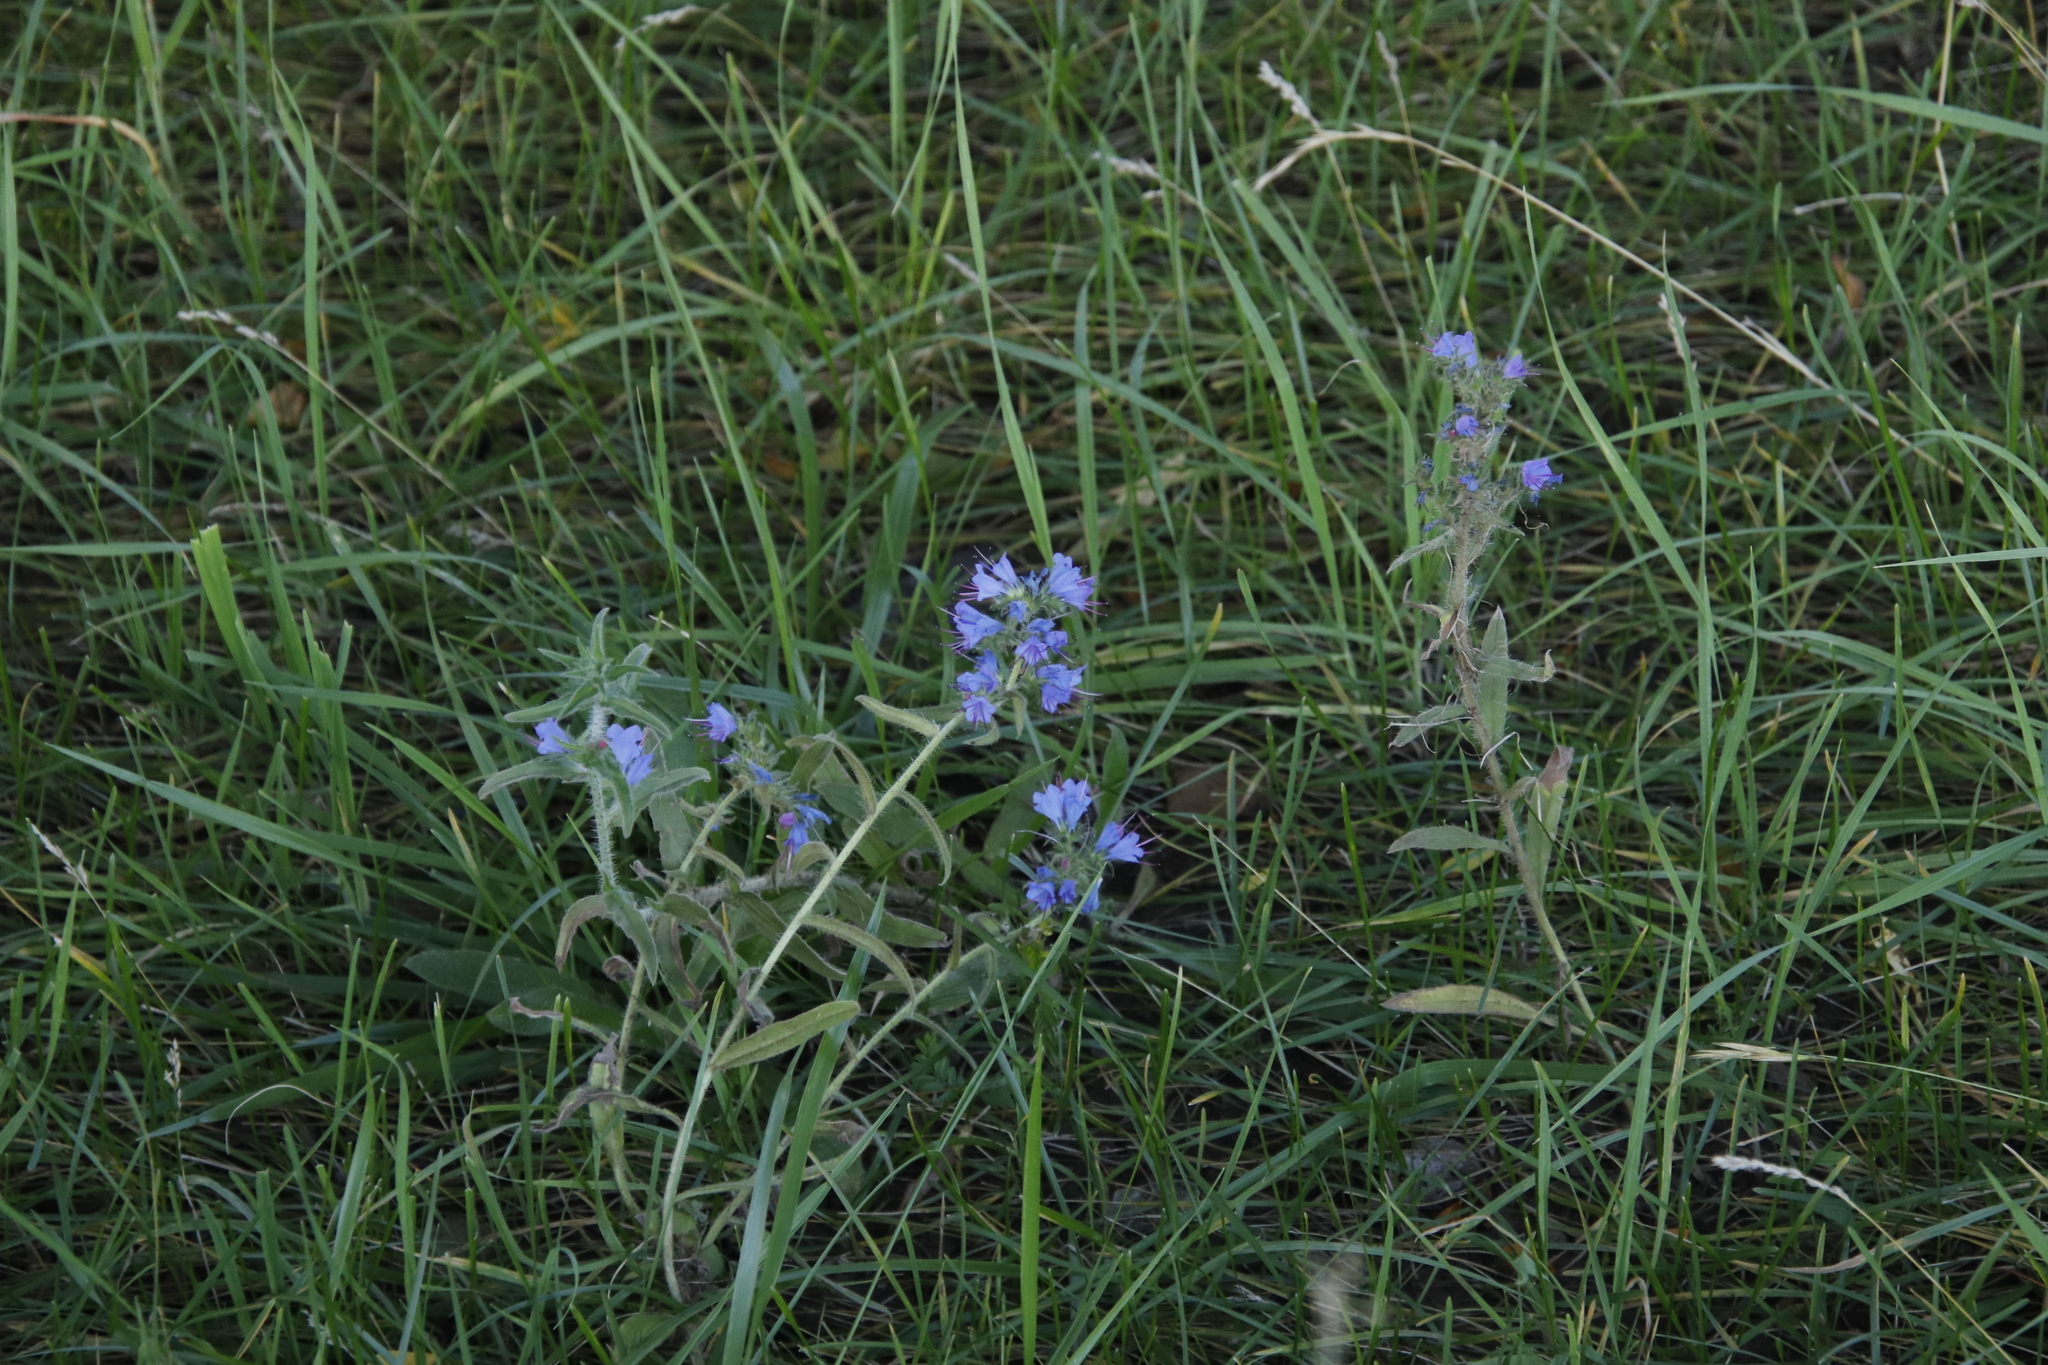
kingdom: Plantae
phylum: Tracheophyta
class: Magnoliopsida
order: Boraginales
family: Boraginaceae
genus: Echium
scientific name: Echium vulgare
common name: Common viper's bugloss
